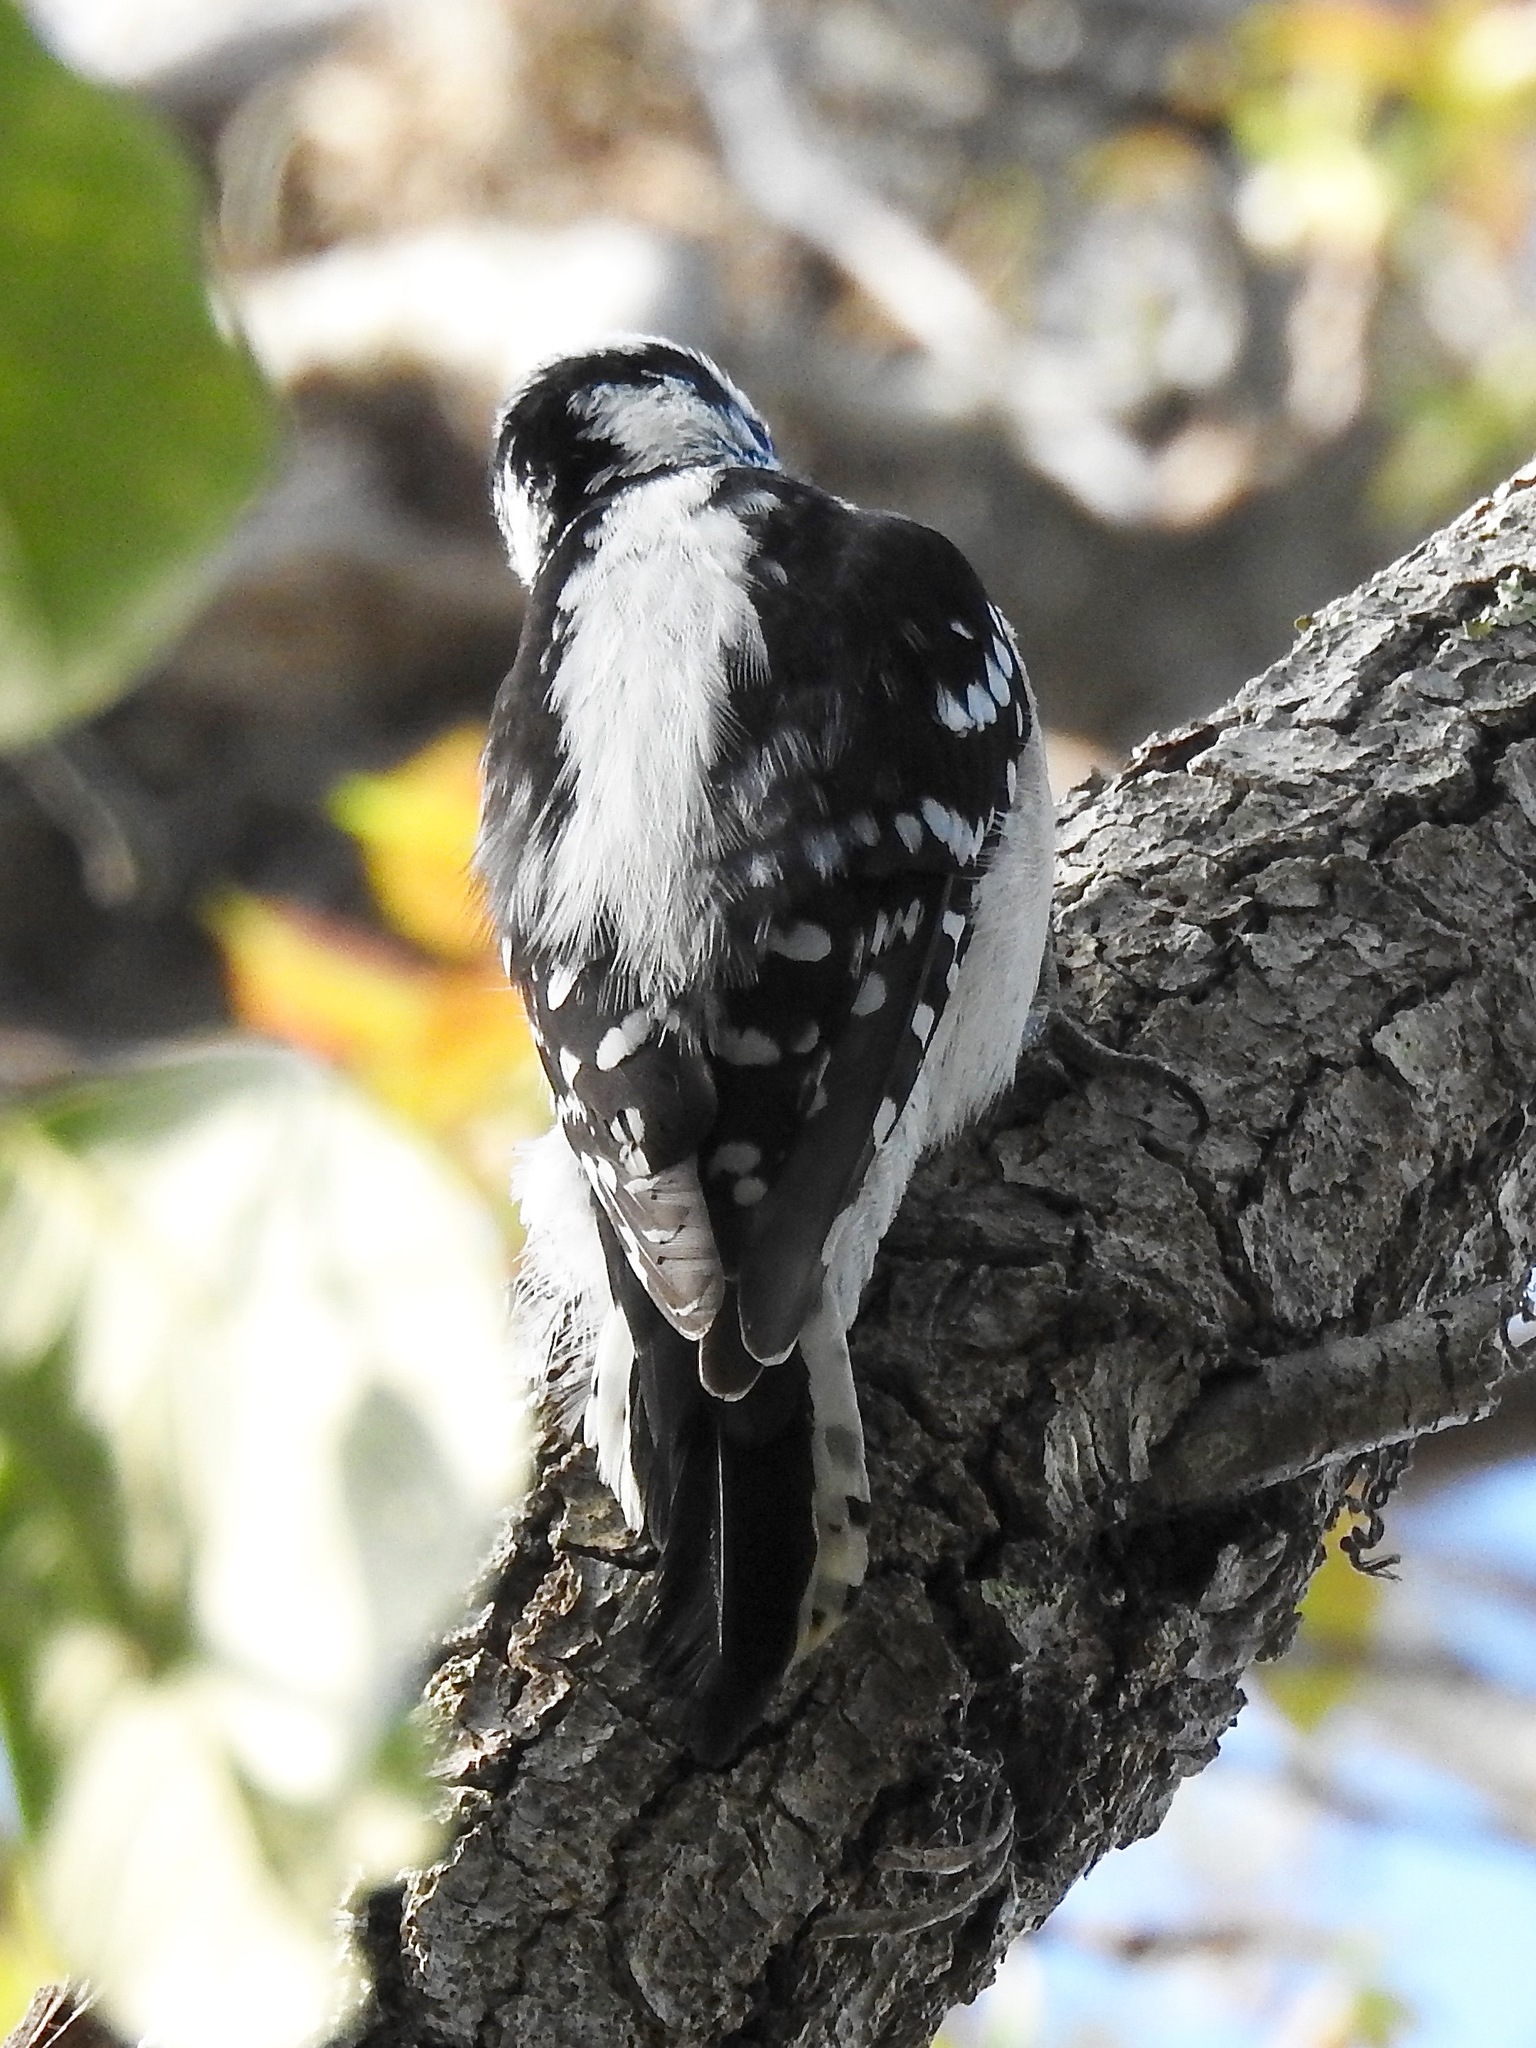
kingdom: Animalia
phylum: Chordata
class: Aves
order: Piciformes
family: Picidae
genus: Dryobates
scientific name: Dryobates pubescens
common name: Downy woodpecker
